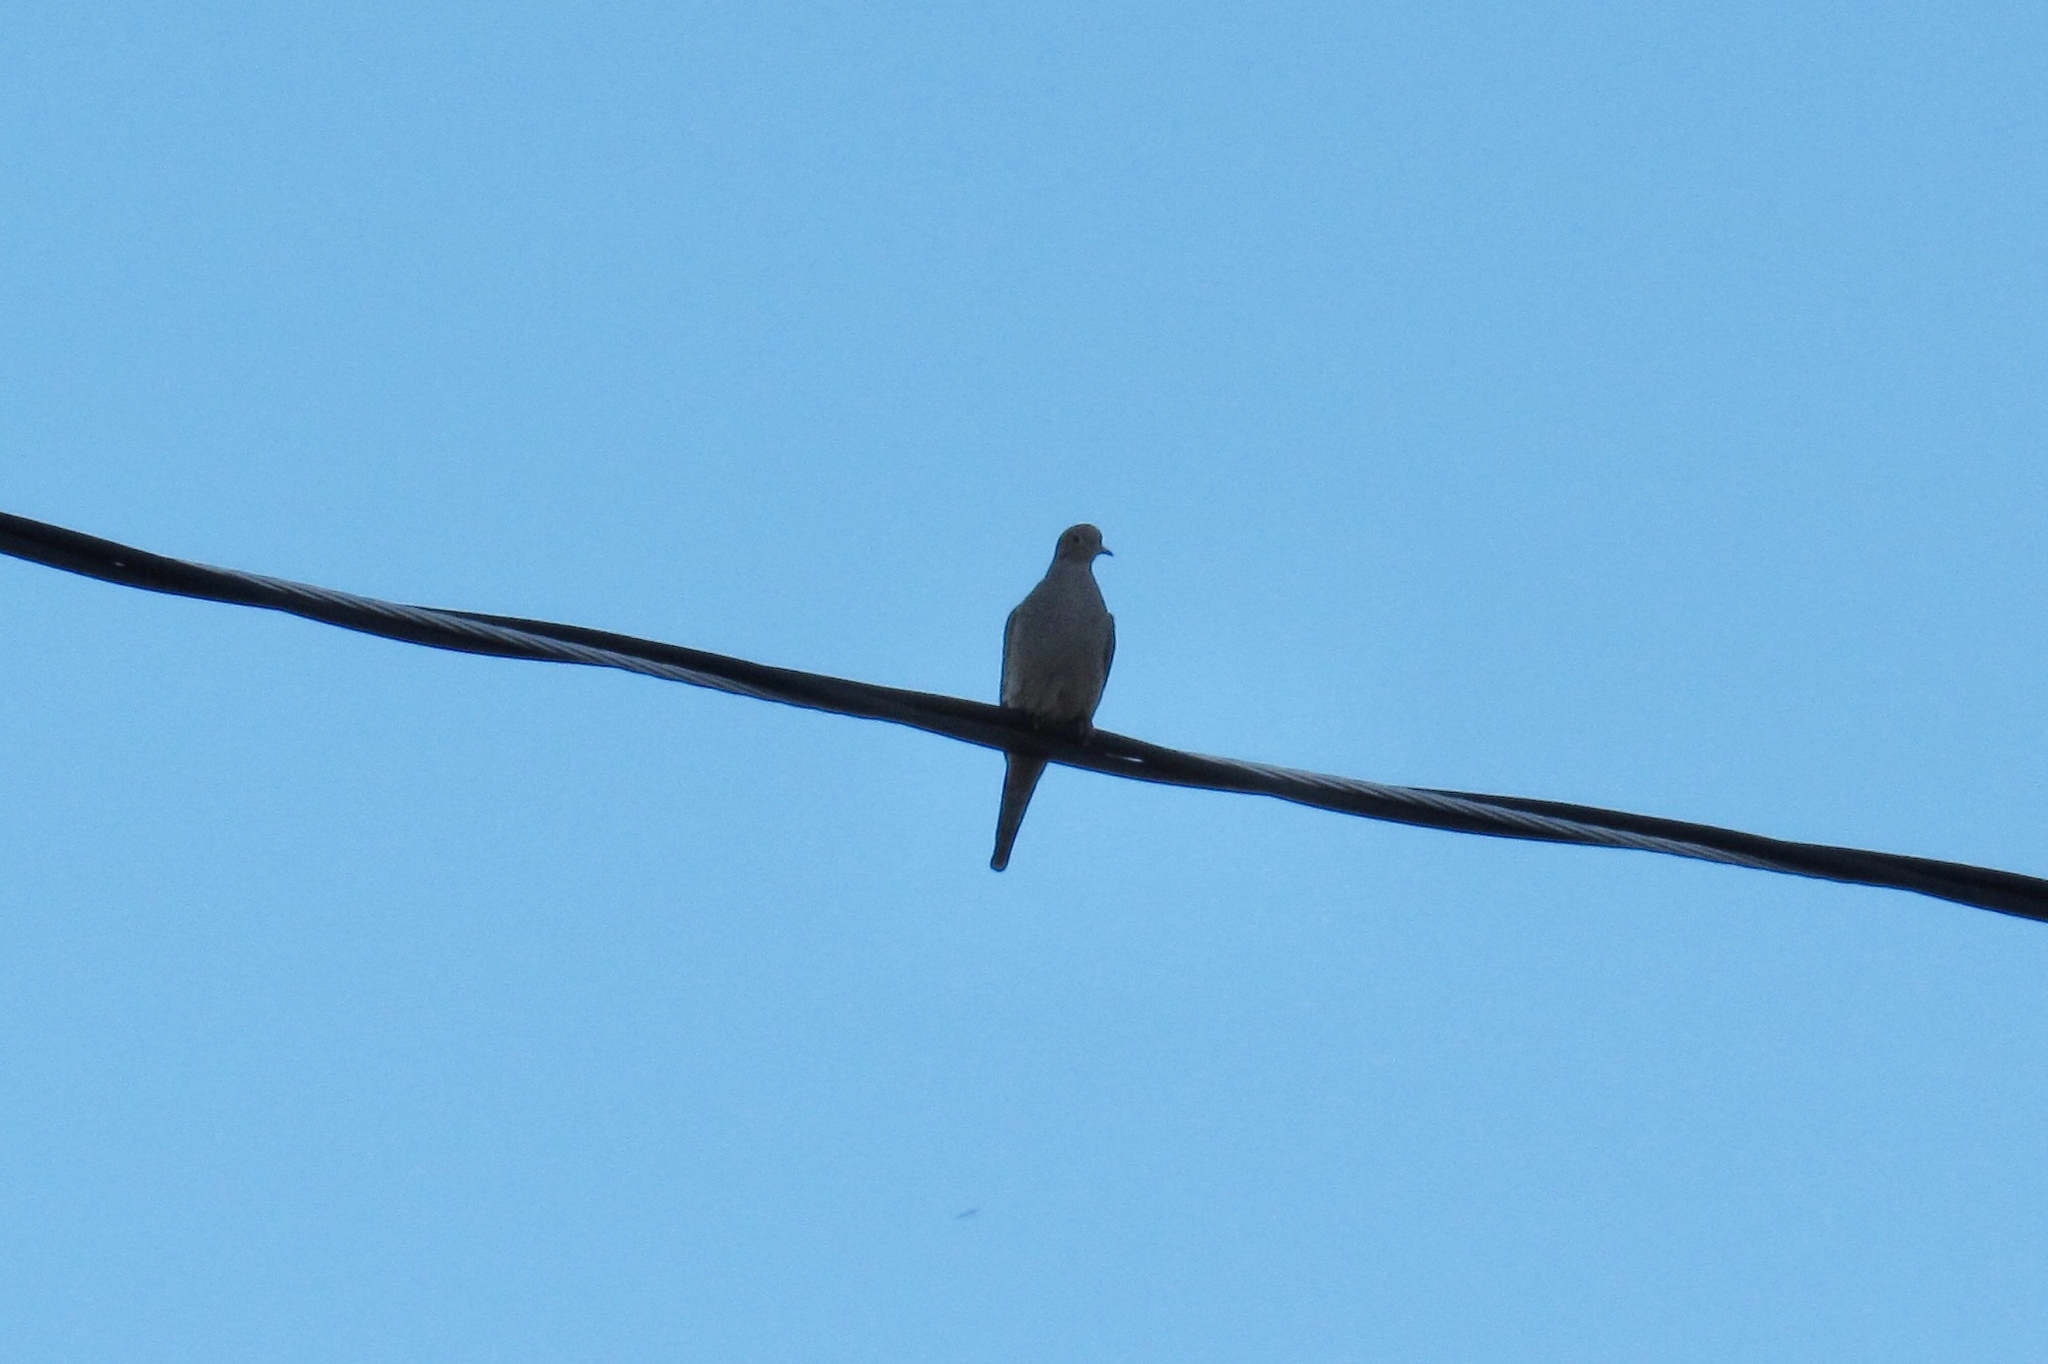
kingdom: Animalia
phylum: Chordata
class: Aves
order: Columbiformes
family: Columbidae
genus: Zenaida
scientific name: Zenaida macroura
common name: Mourning dove
